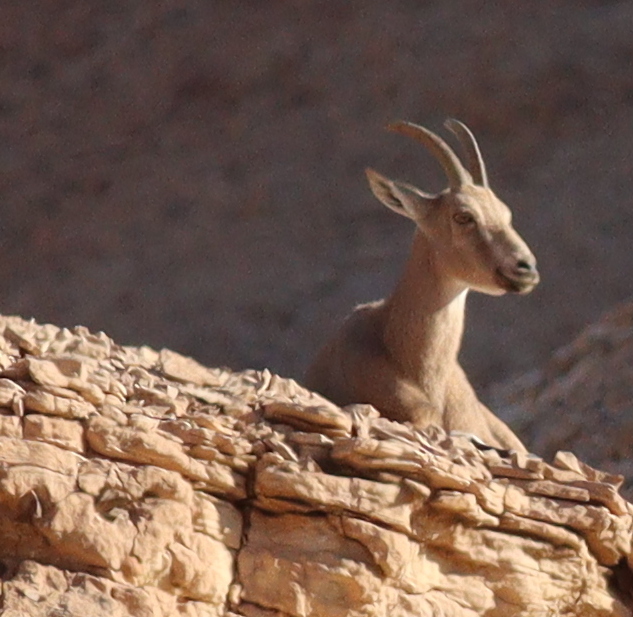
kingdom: Animalia
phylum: Chordata
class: Mammalia
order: Artiodactyla
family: Bovidae
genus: Capra
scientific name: Capra nubiana
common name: Nubian ibex
